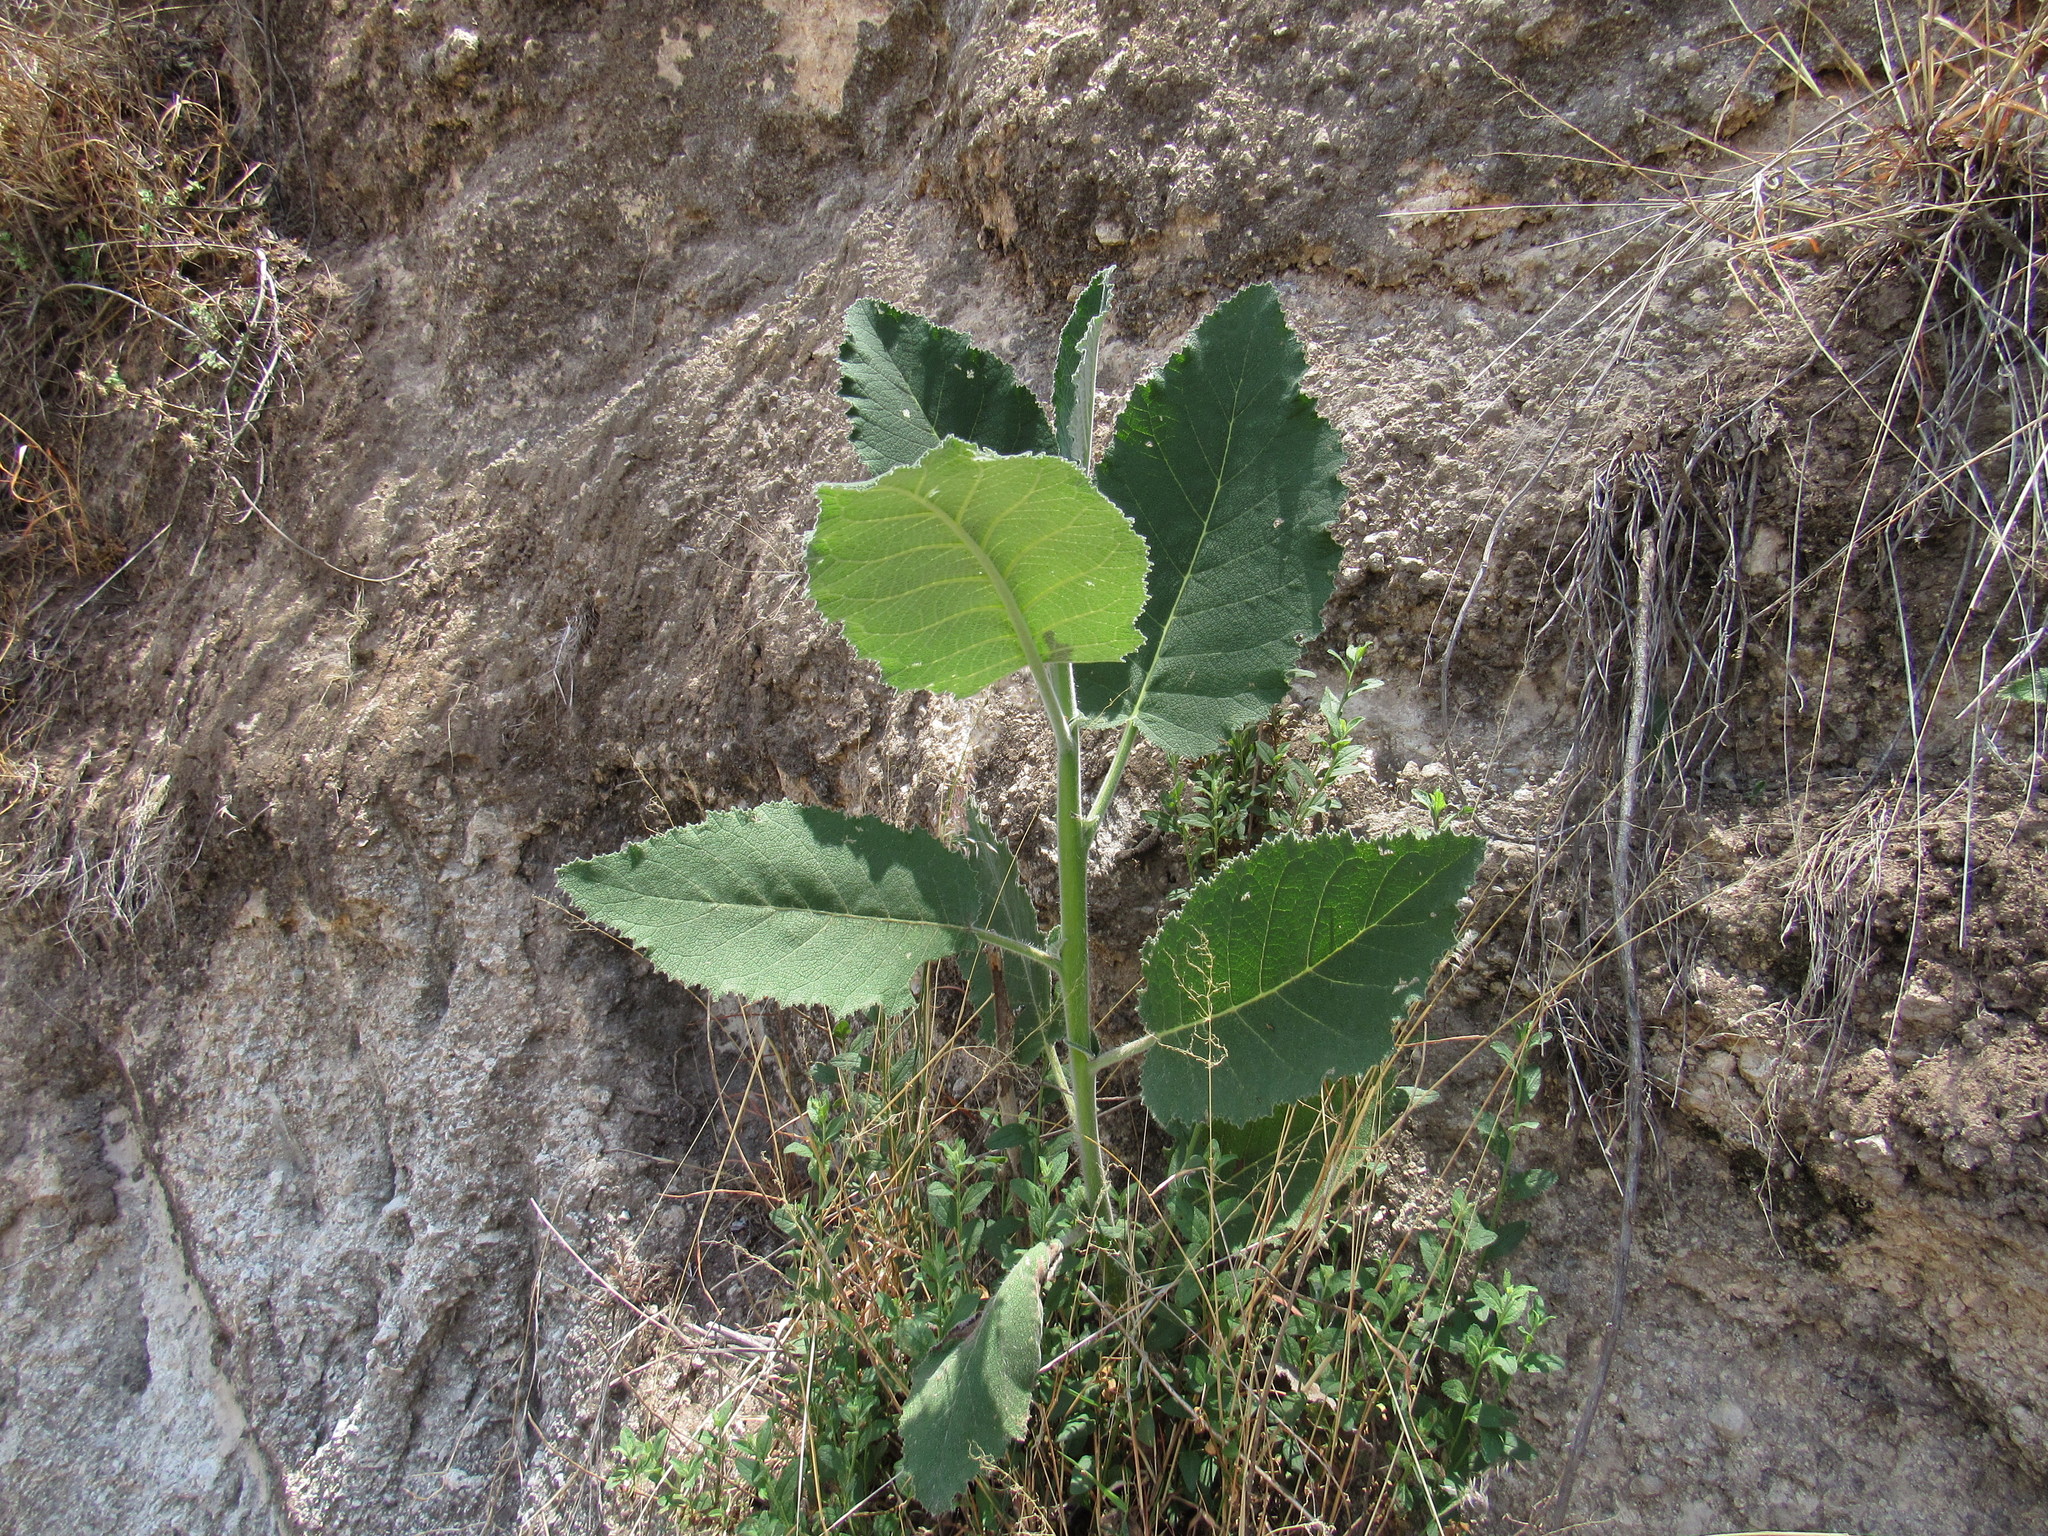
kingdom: Plantae
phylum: Tracheophyta
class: Magnoliopsida
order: Boraginales
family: Namaceae
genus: Wigandia
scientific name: Wigandia urens
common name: Caracus wigandia
